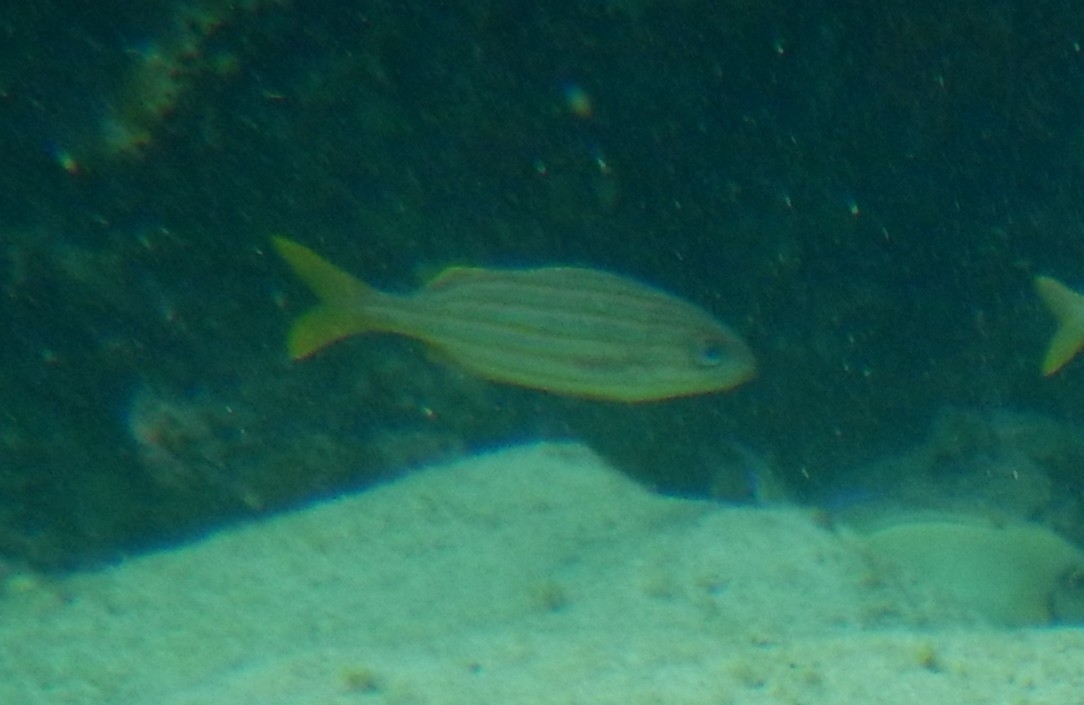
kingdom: Animalia
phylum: Chordata
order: Perciformes
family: Haemulidae
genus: Haemulon
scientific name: Haemulon chrysargyreum
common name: Smallmouth grunt
